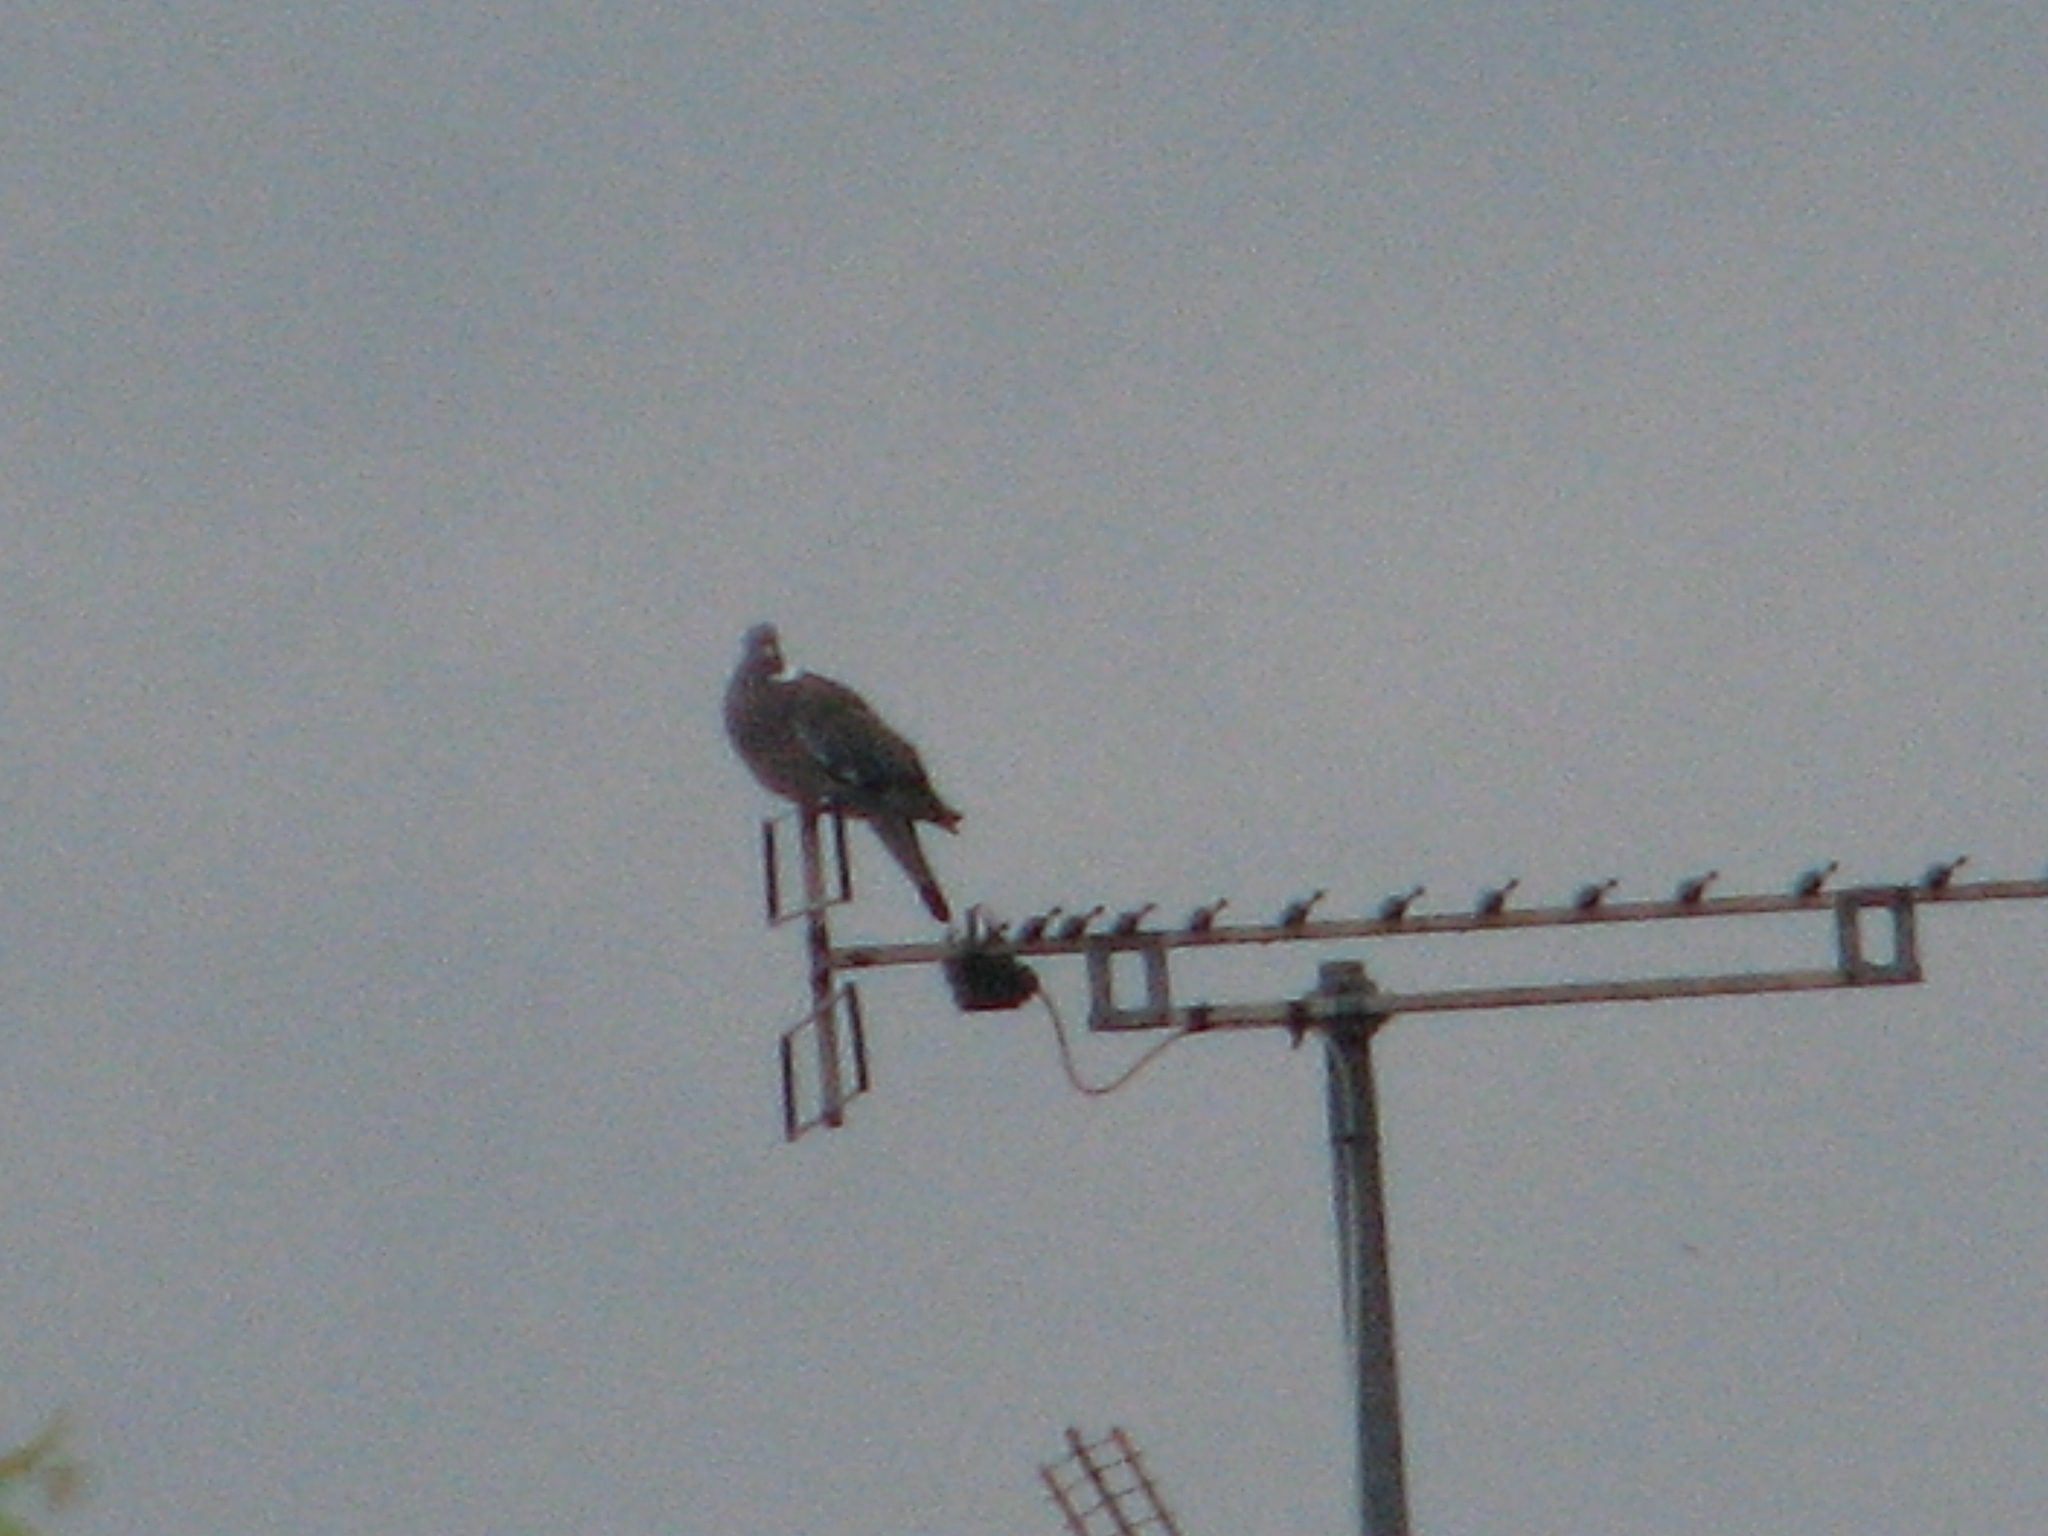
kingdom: Animalia
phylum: Chordata
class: Aves
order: Columbiformes
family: Columbidae
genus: Columba
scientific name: Columba palumbus
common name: Common wood pigeon
